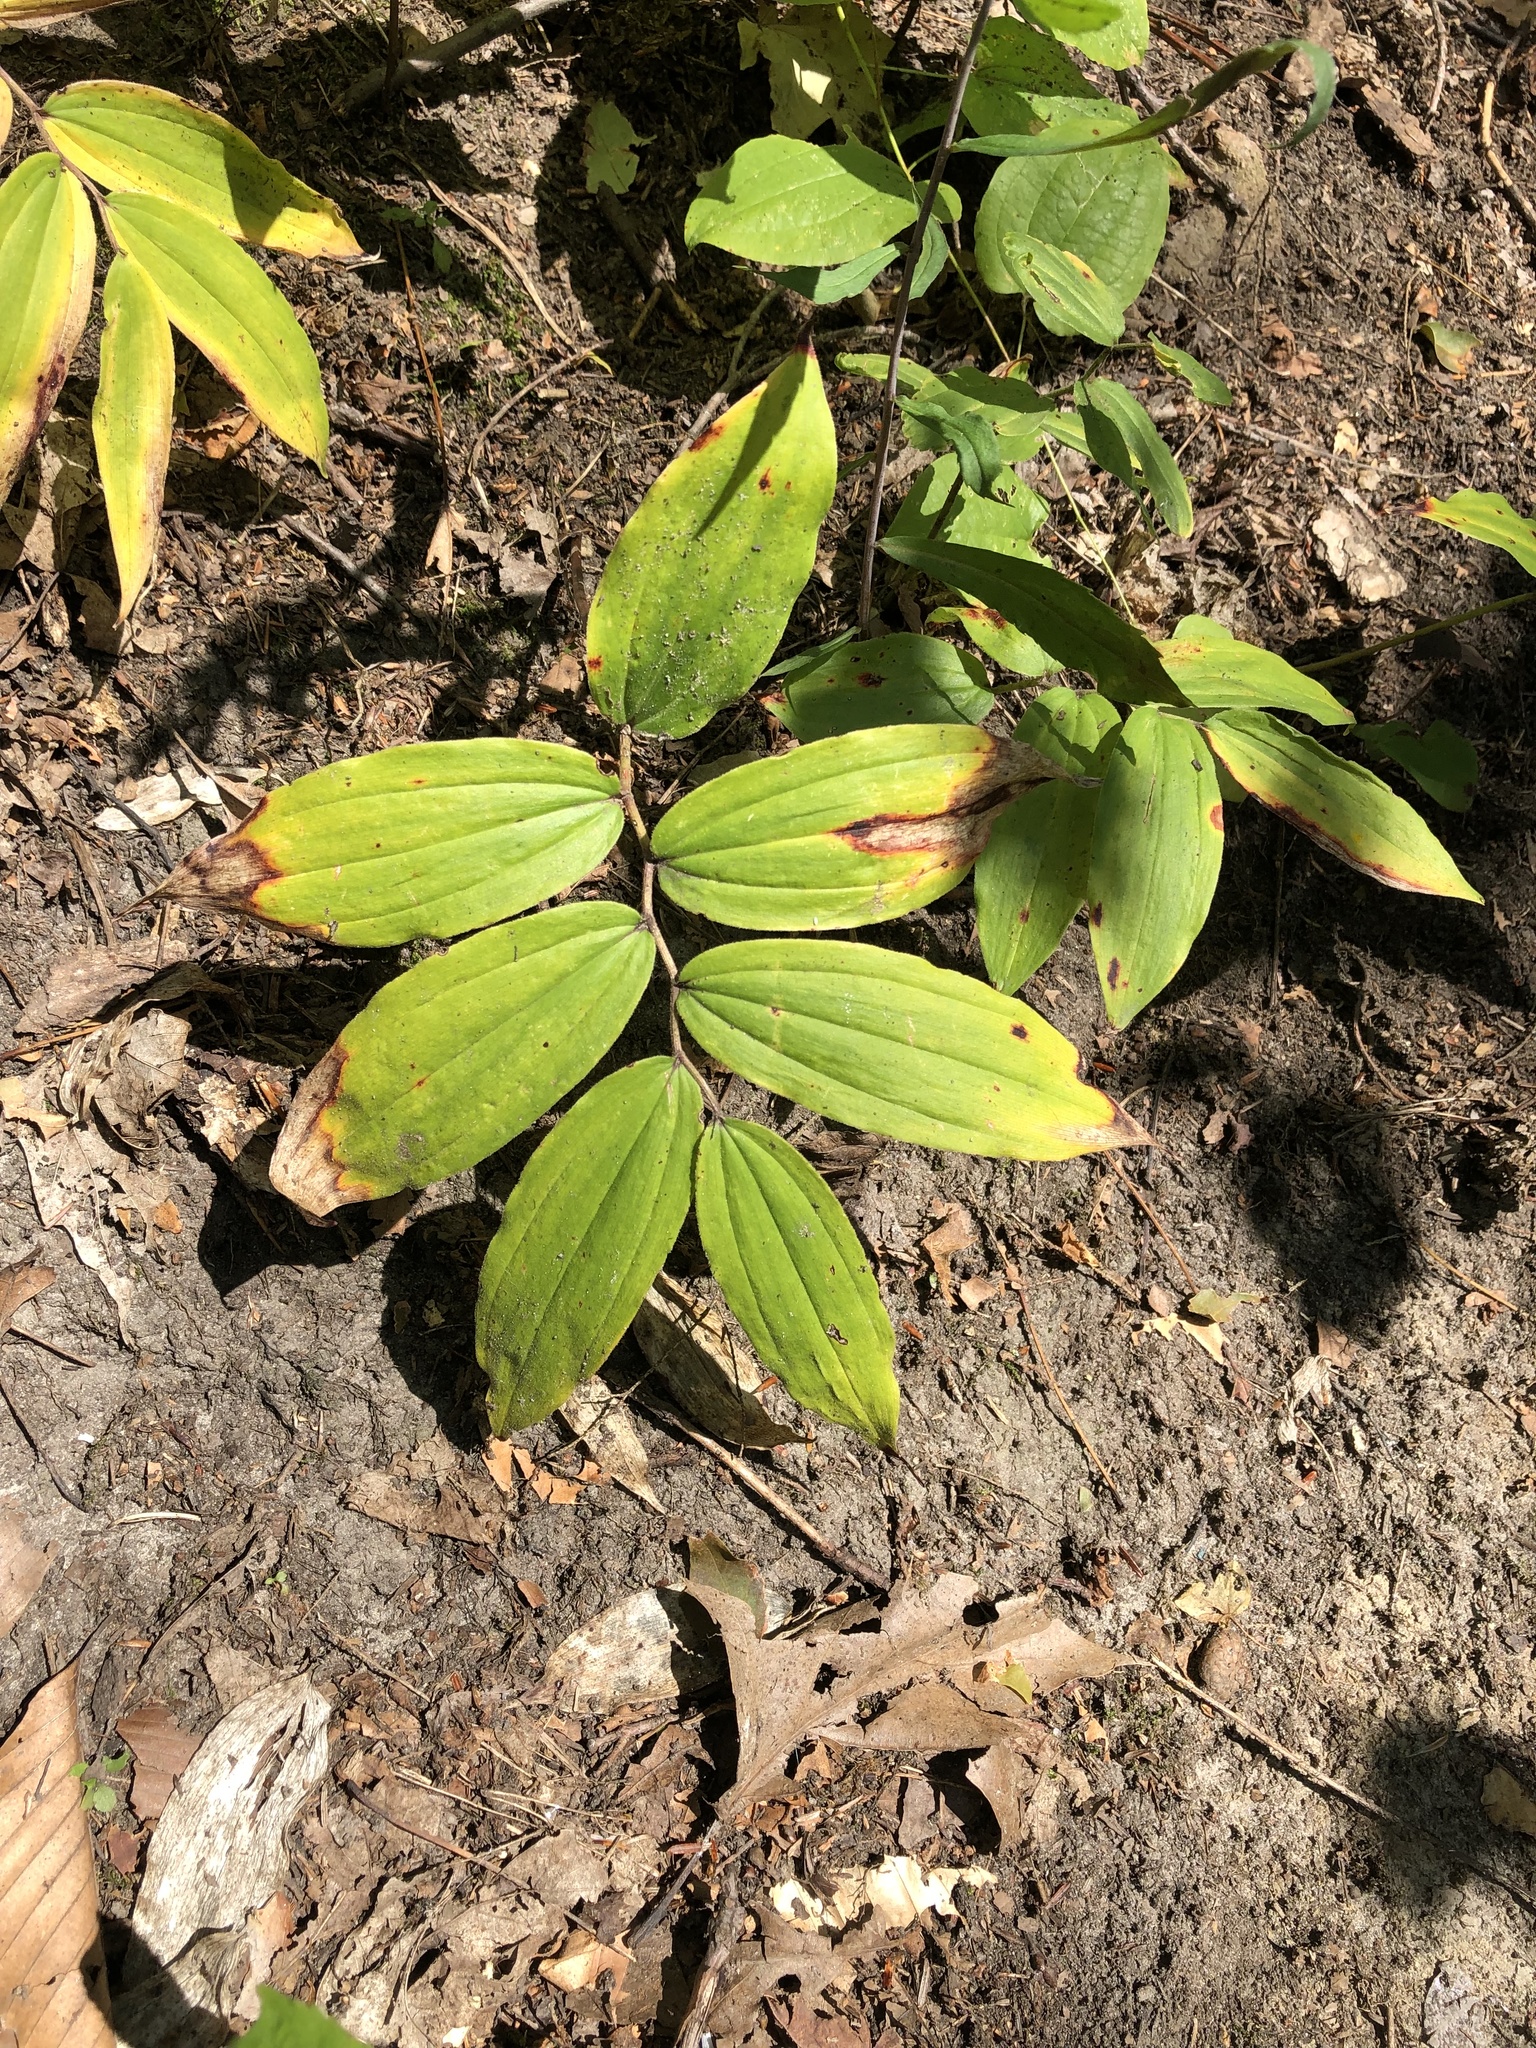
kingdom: Plantae
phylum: Tracheophyta
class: Liliopsida
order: Asparagales
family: Asparagaceae
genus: Maianthemum
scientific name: Maianthemum racemosum
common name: False spikenard
